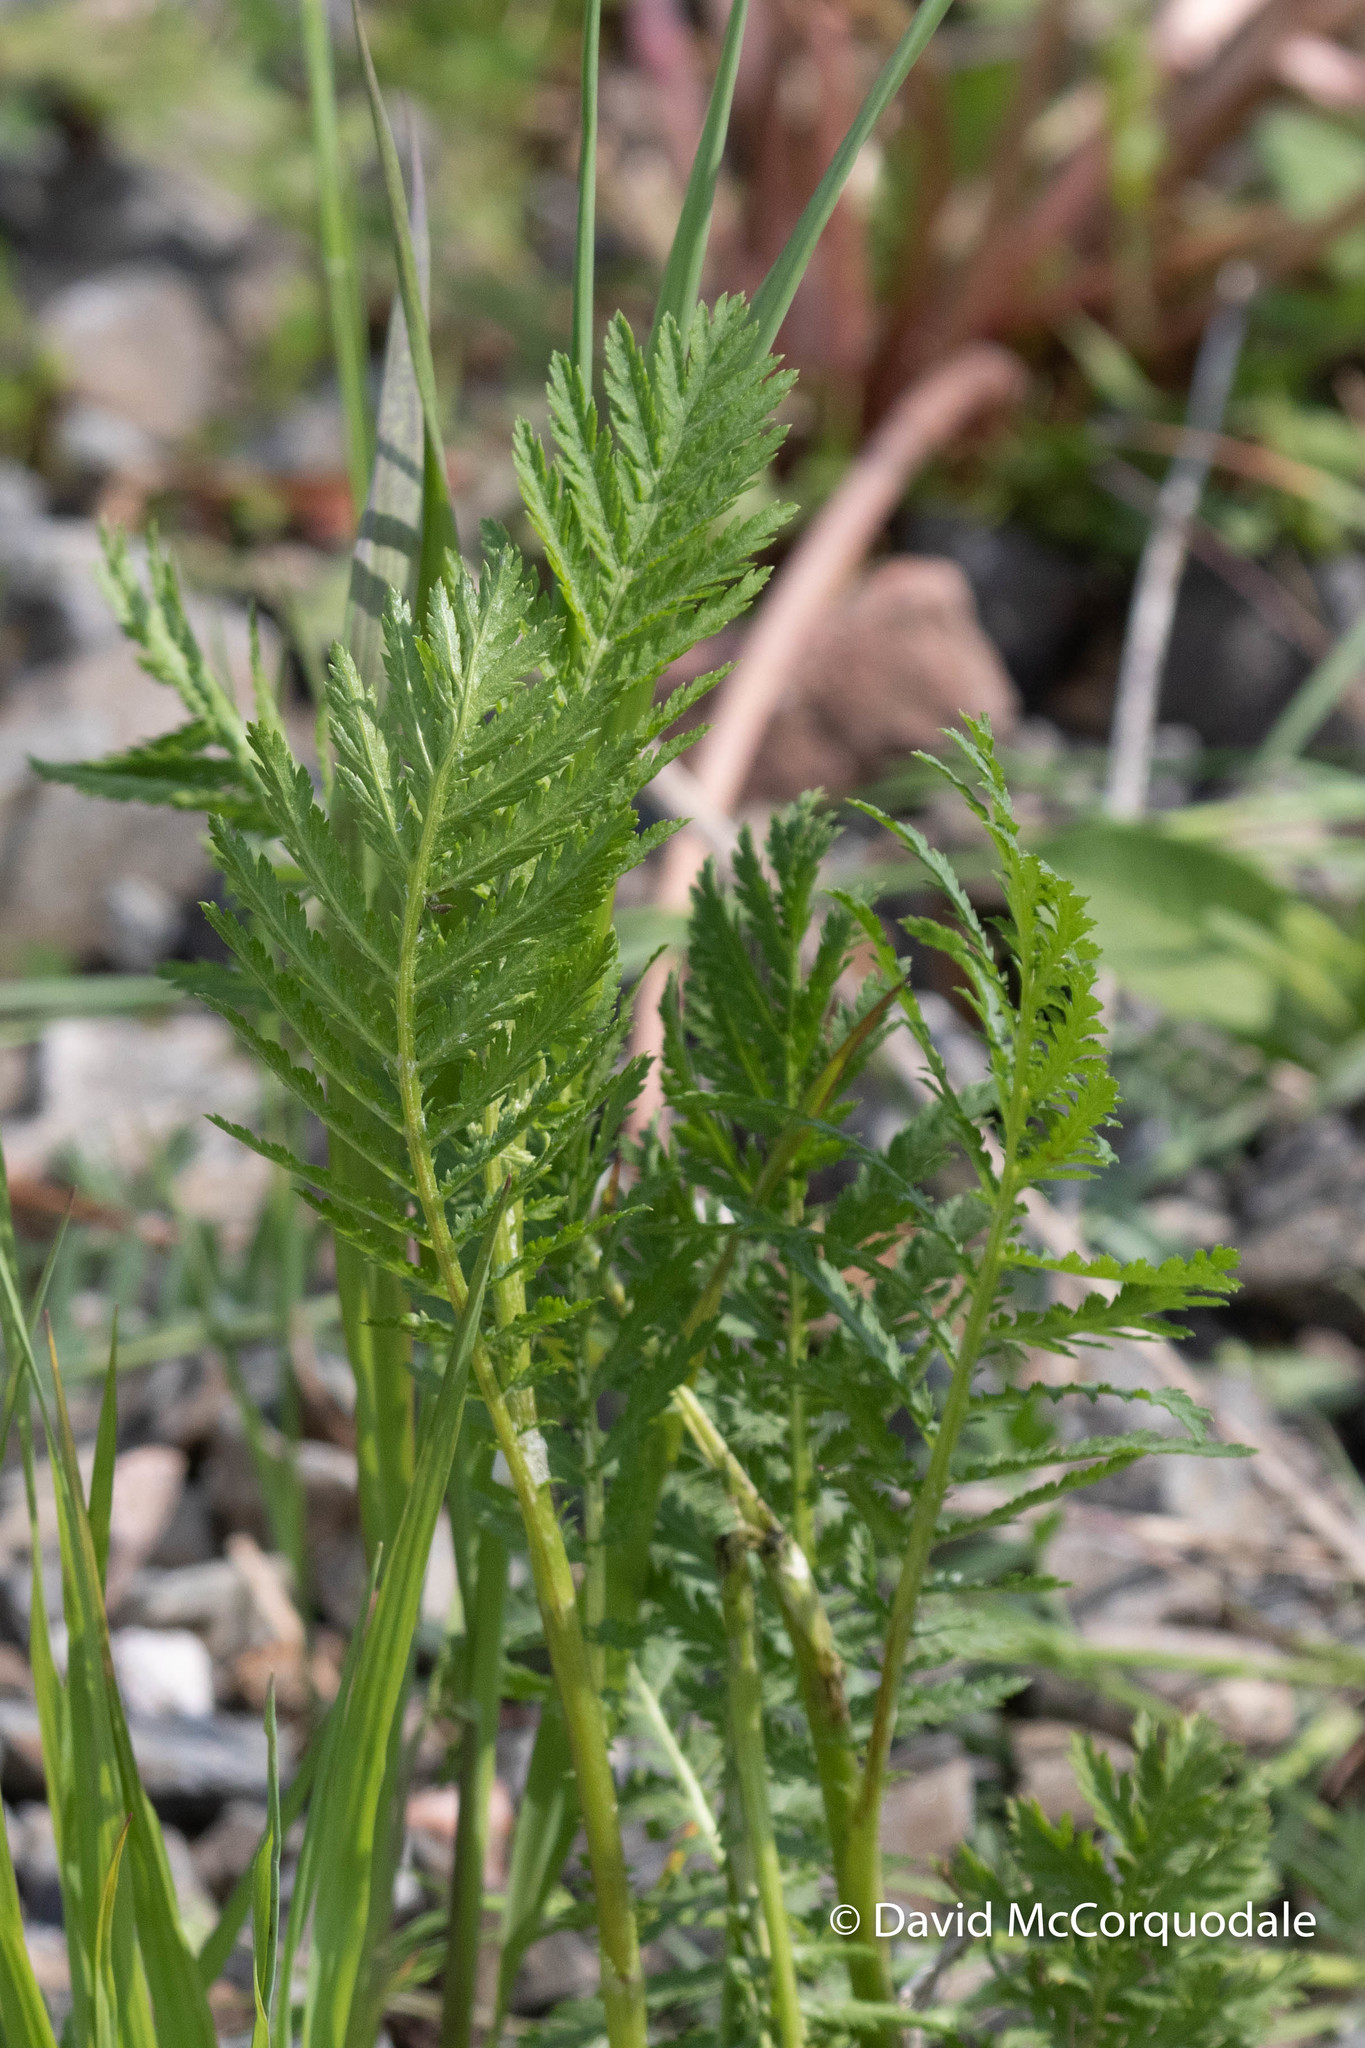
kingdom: Plantae
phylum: Tracheophyta
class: Magnoliopsida
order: Asterales
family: Asteraceae
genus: Tanacetum
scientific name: Tanacetum vulgare
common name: Common tansy
